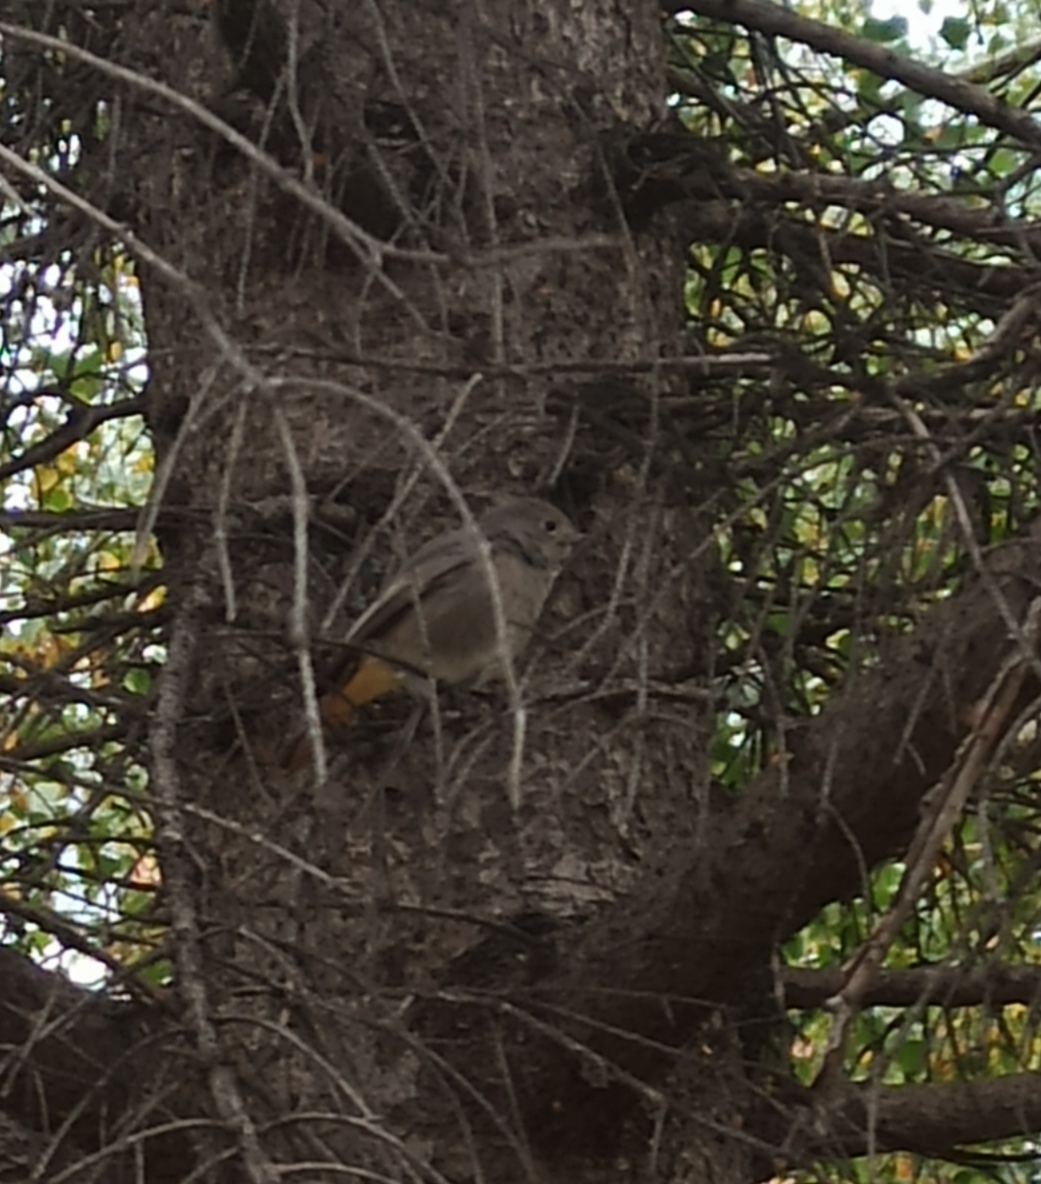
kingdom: Animalia
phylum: Chordata
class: Aves
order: Passeriformes
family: Muscicapidae
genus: Phoenicurus
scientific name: Phoenicurus ochruros
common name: Black redstart
